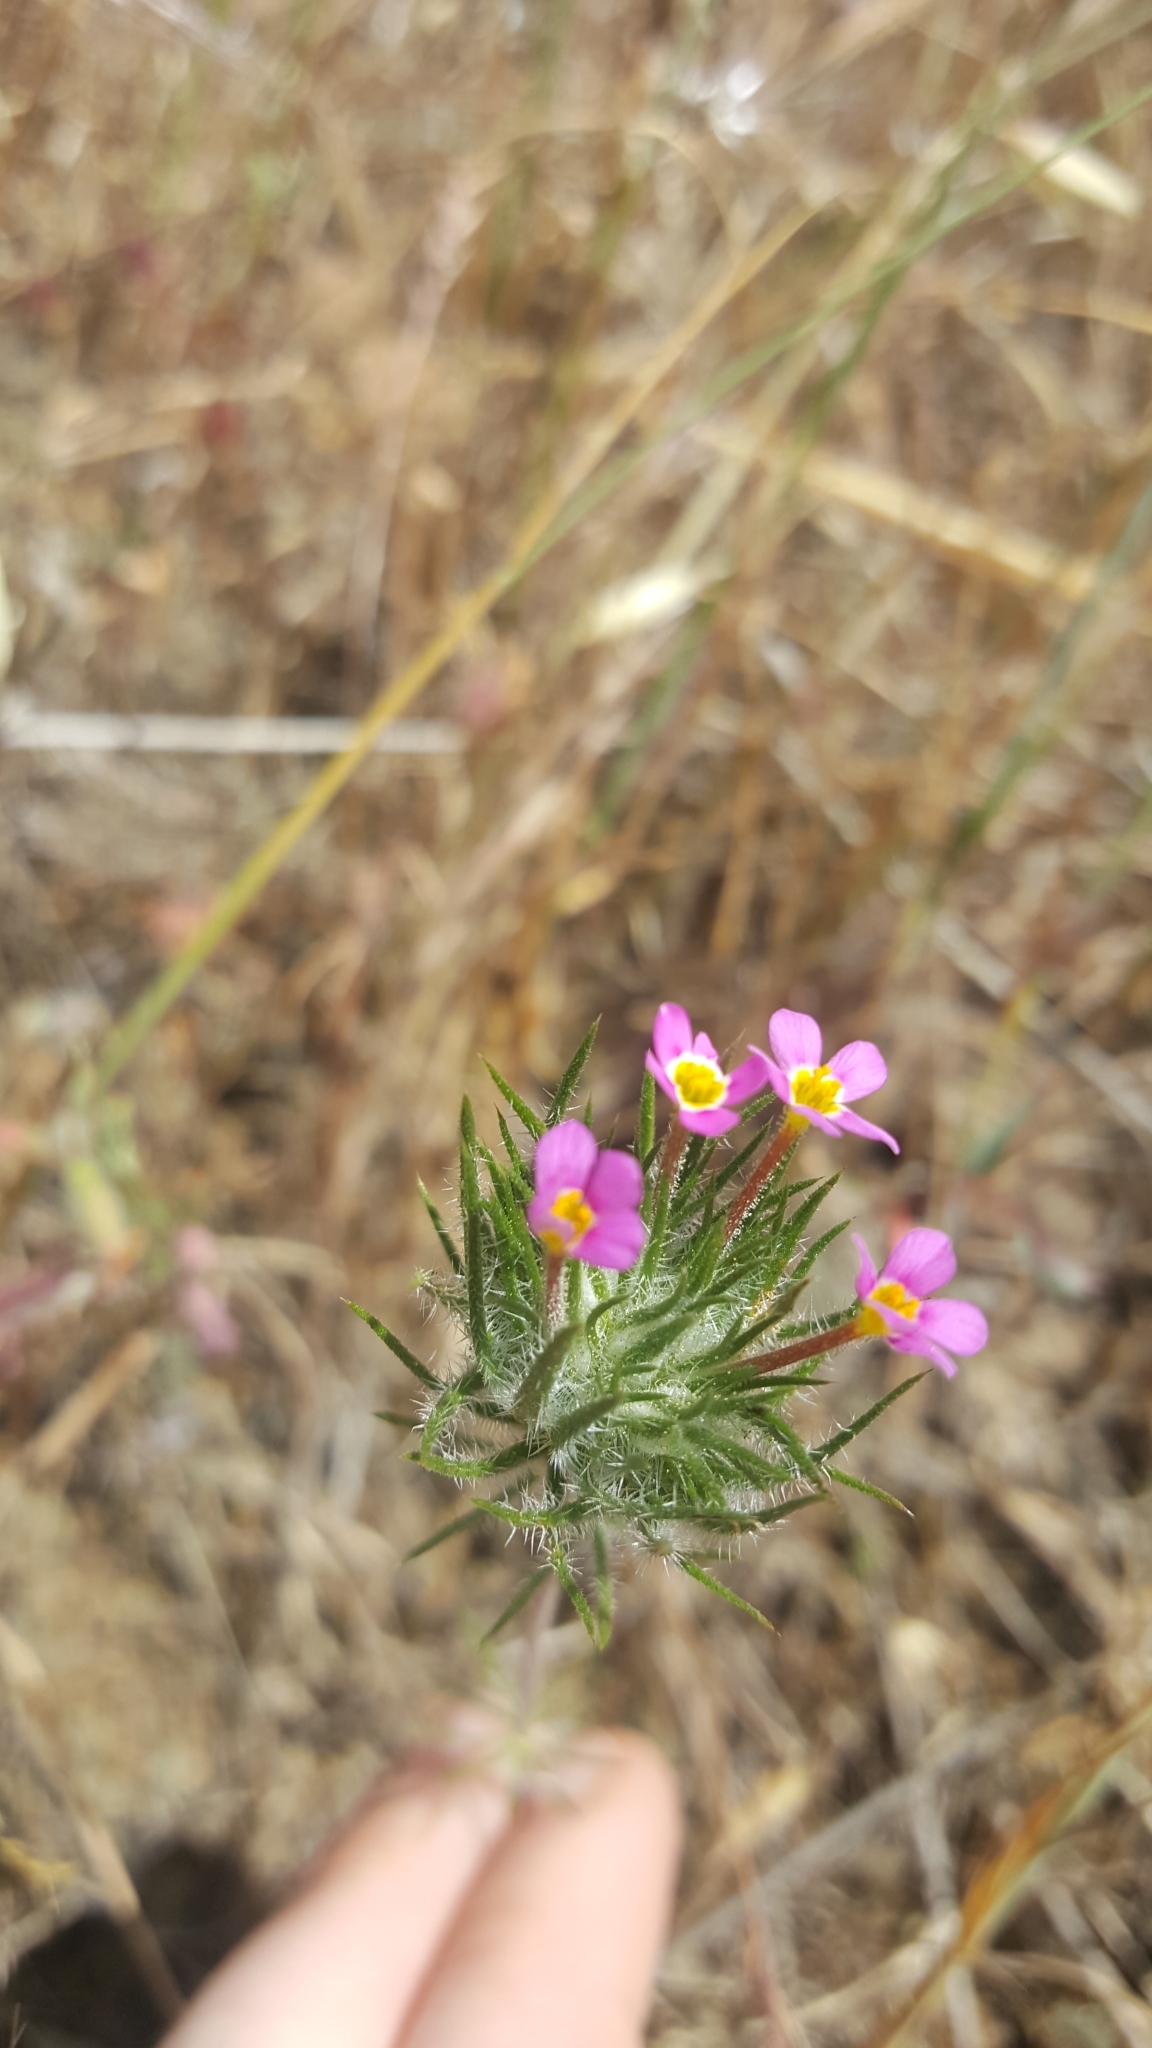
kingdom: Plantae
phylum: Tracheophyta
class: Magnoliopsida
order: Ericales
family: Polemoniaceae
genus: Leptosiphon
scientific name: Leptosiphon ciliatus
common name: Whiskerbrush
